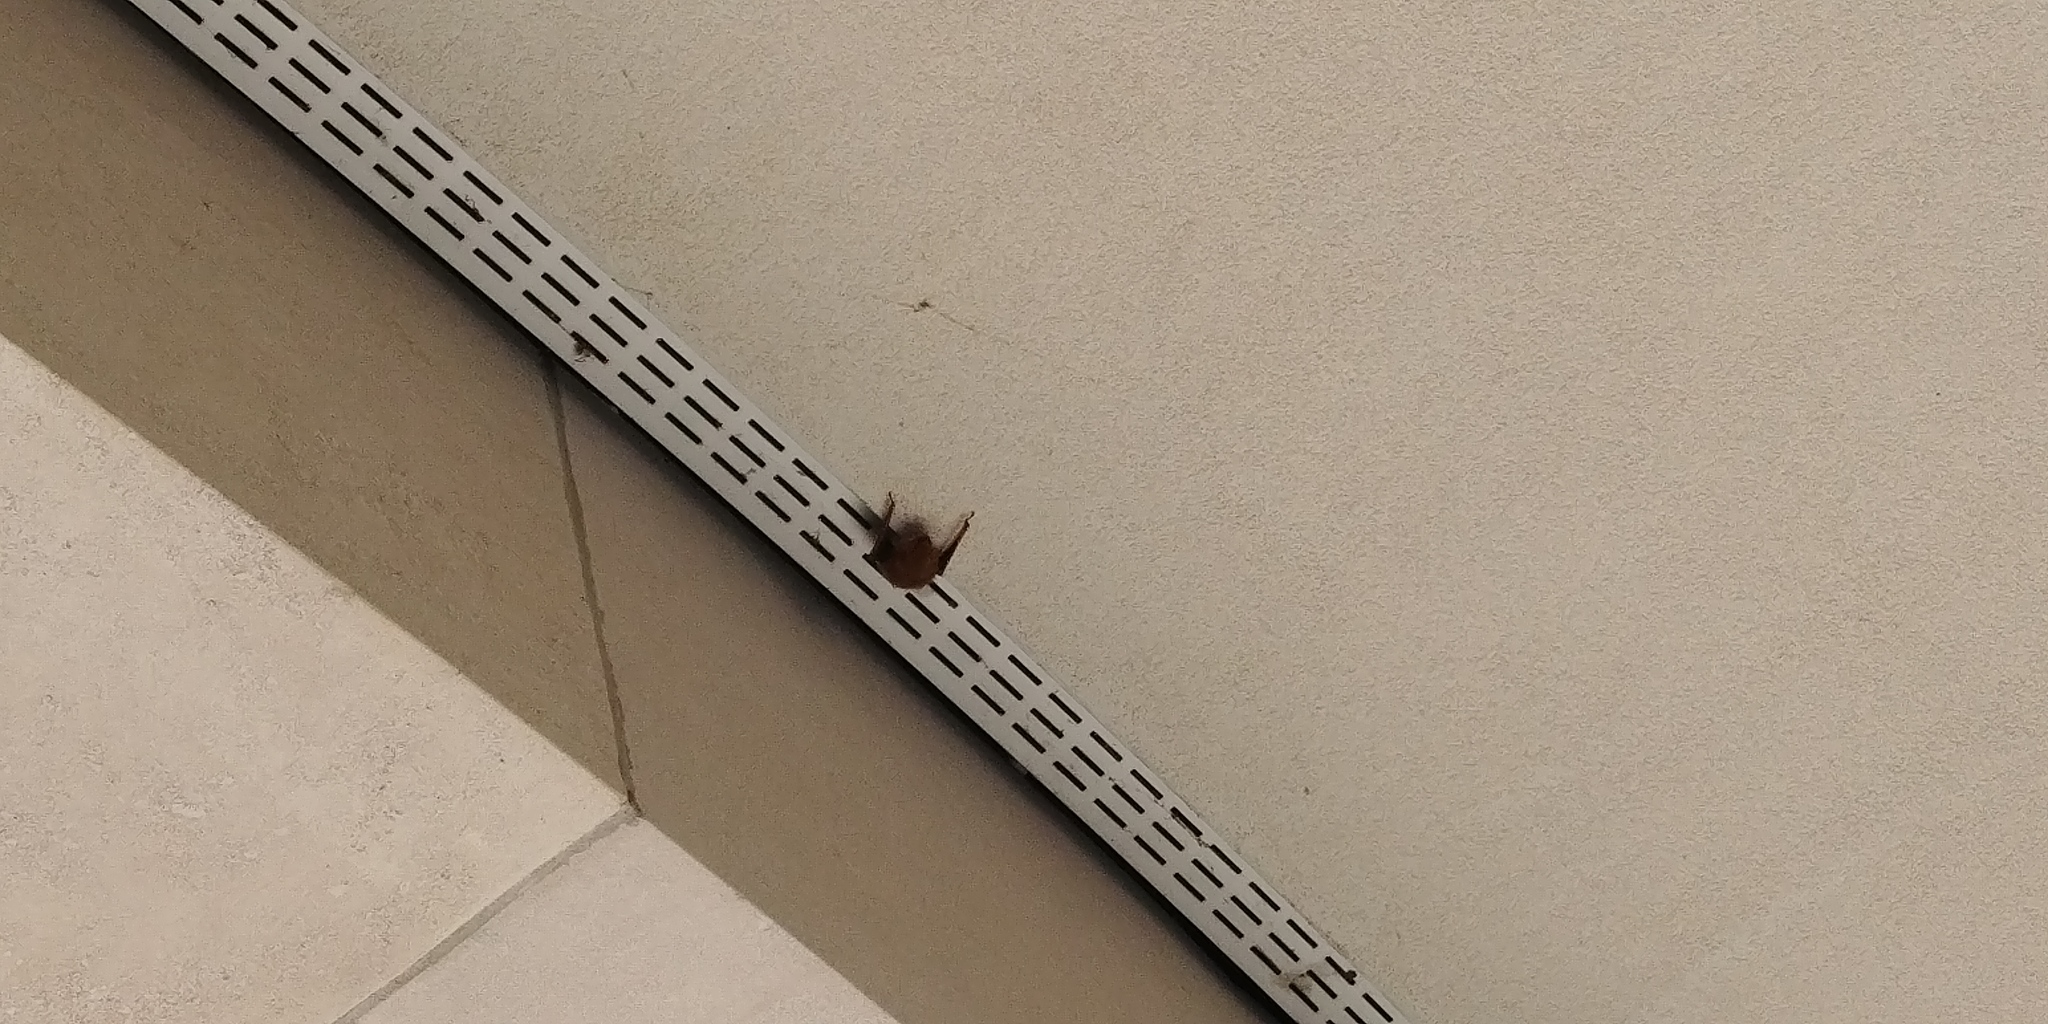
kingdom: Animalia
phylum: Chordata
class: Mammalia
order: Chiroptera
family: Vespertilionidae
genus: Perimyotis
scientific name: Perimyotis subflavus
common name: Eastern pipistrelle
